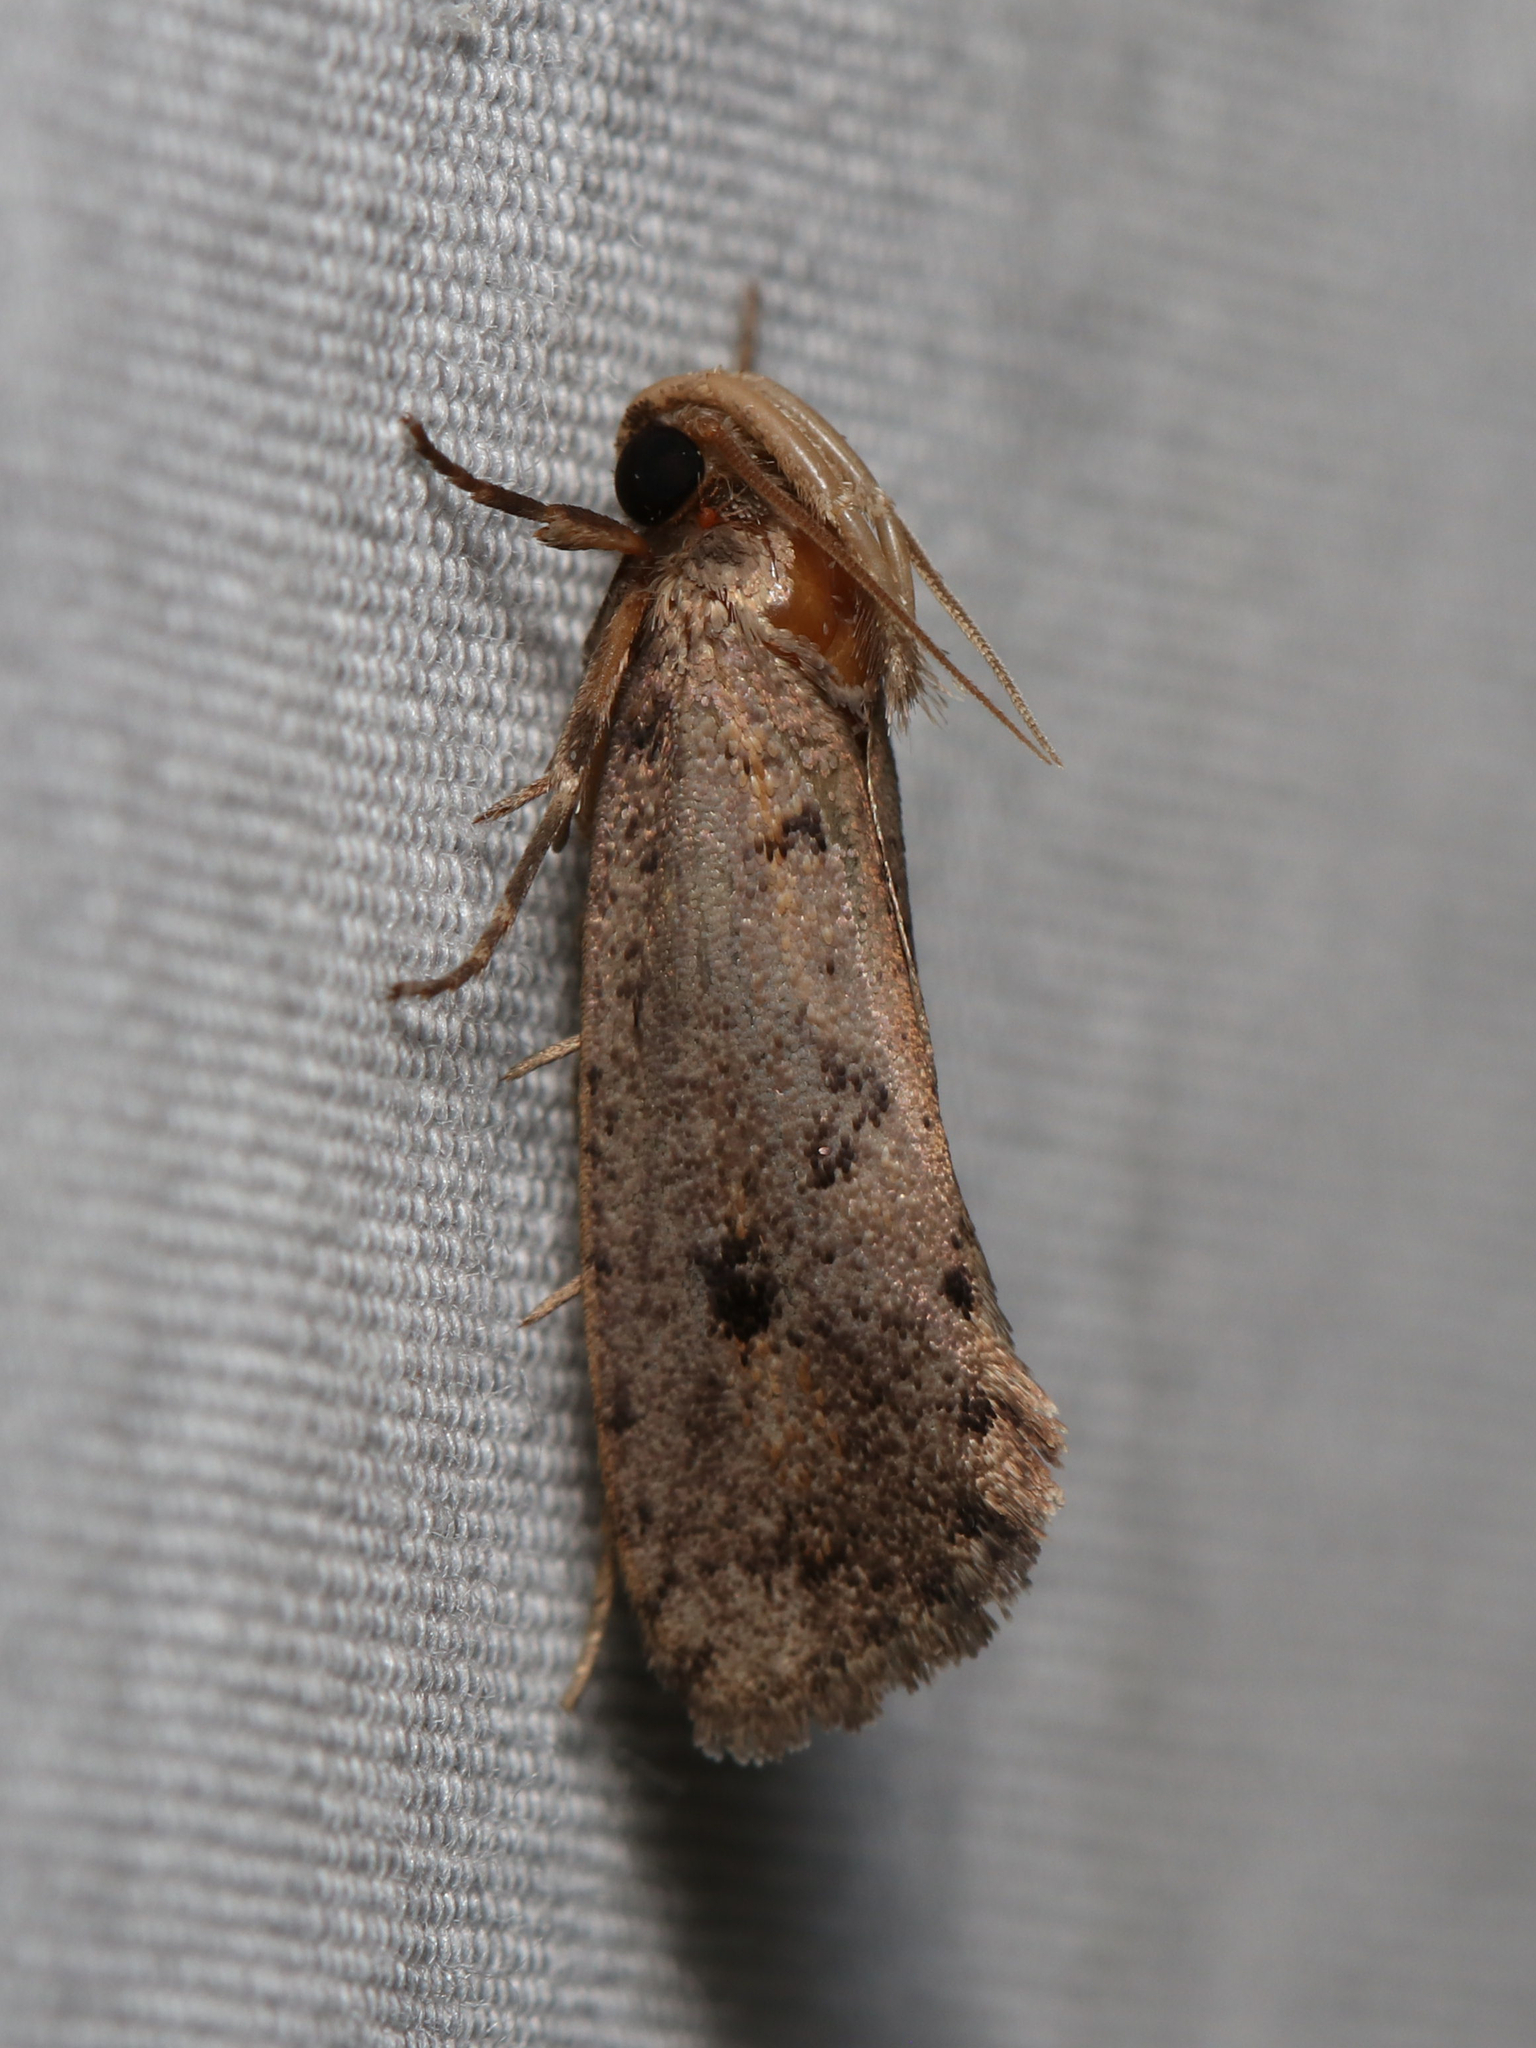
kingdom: Animalia
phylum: Arthropoda
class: Insecta
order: Lepidoptera
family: Tineidae
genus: Acrolophus
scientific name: Acrolophus popeanella
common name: Clemens' grass tubeworm moth
